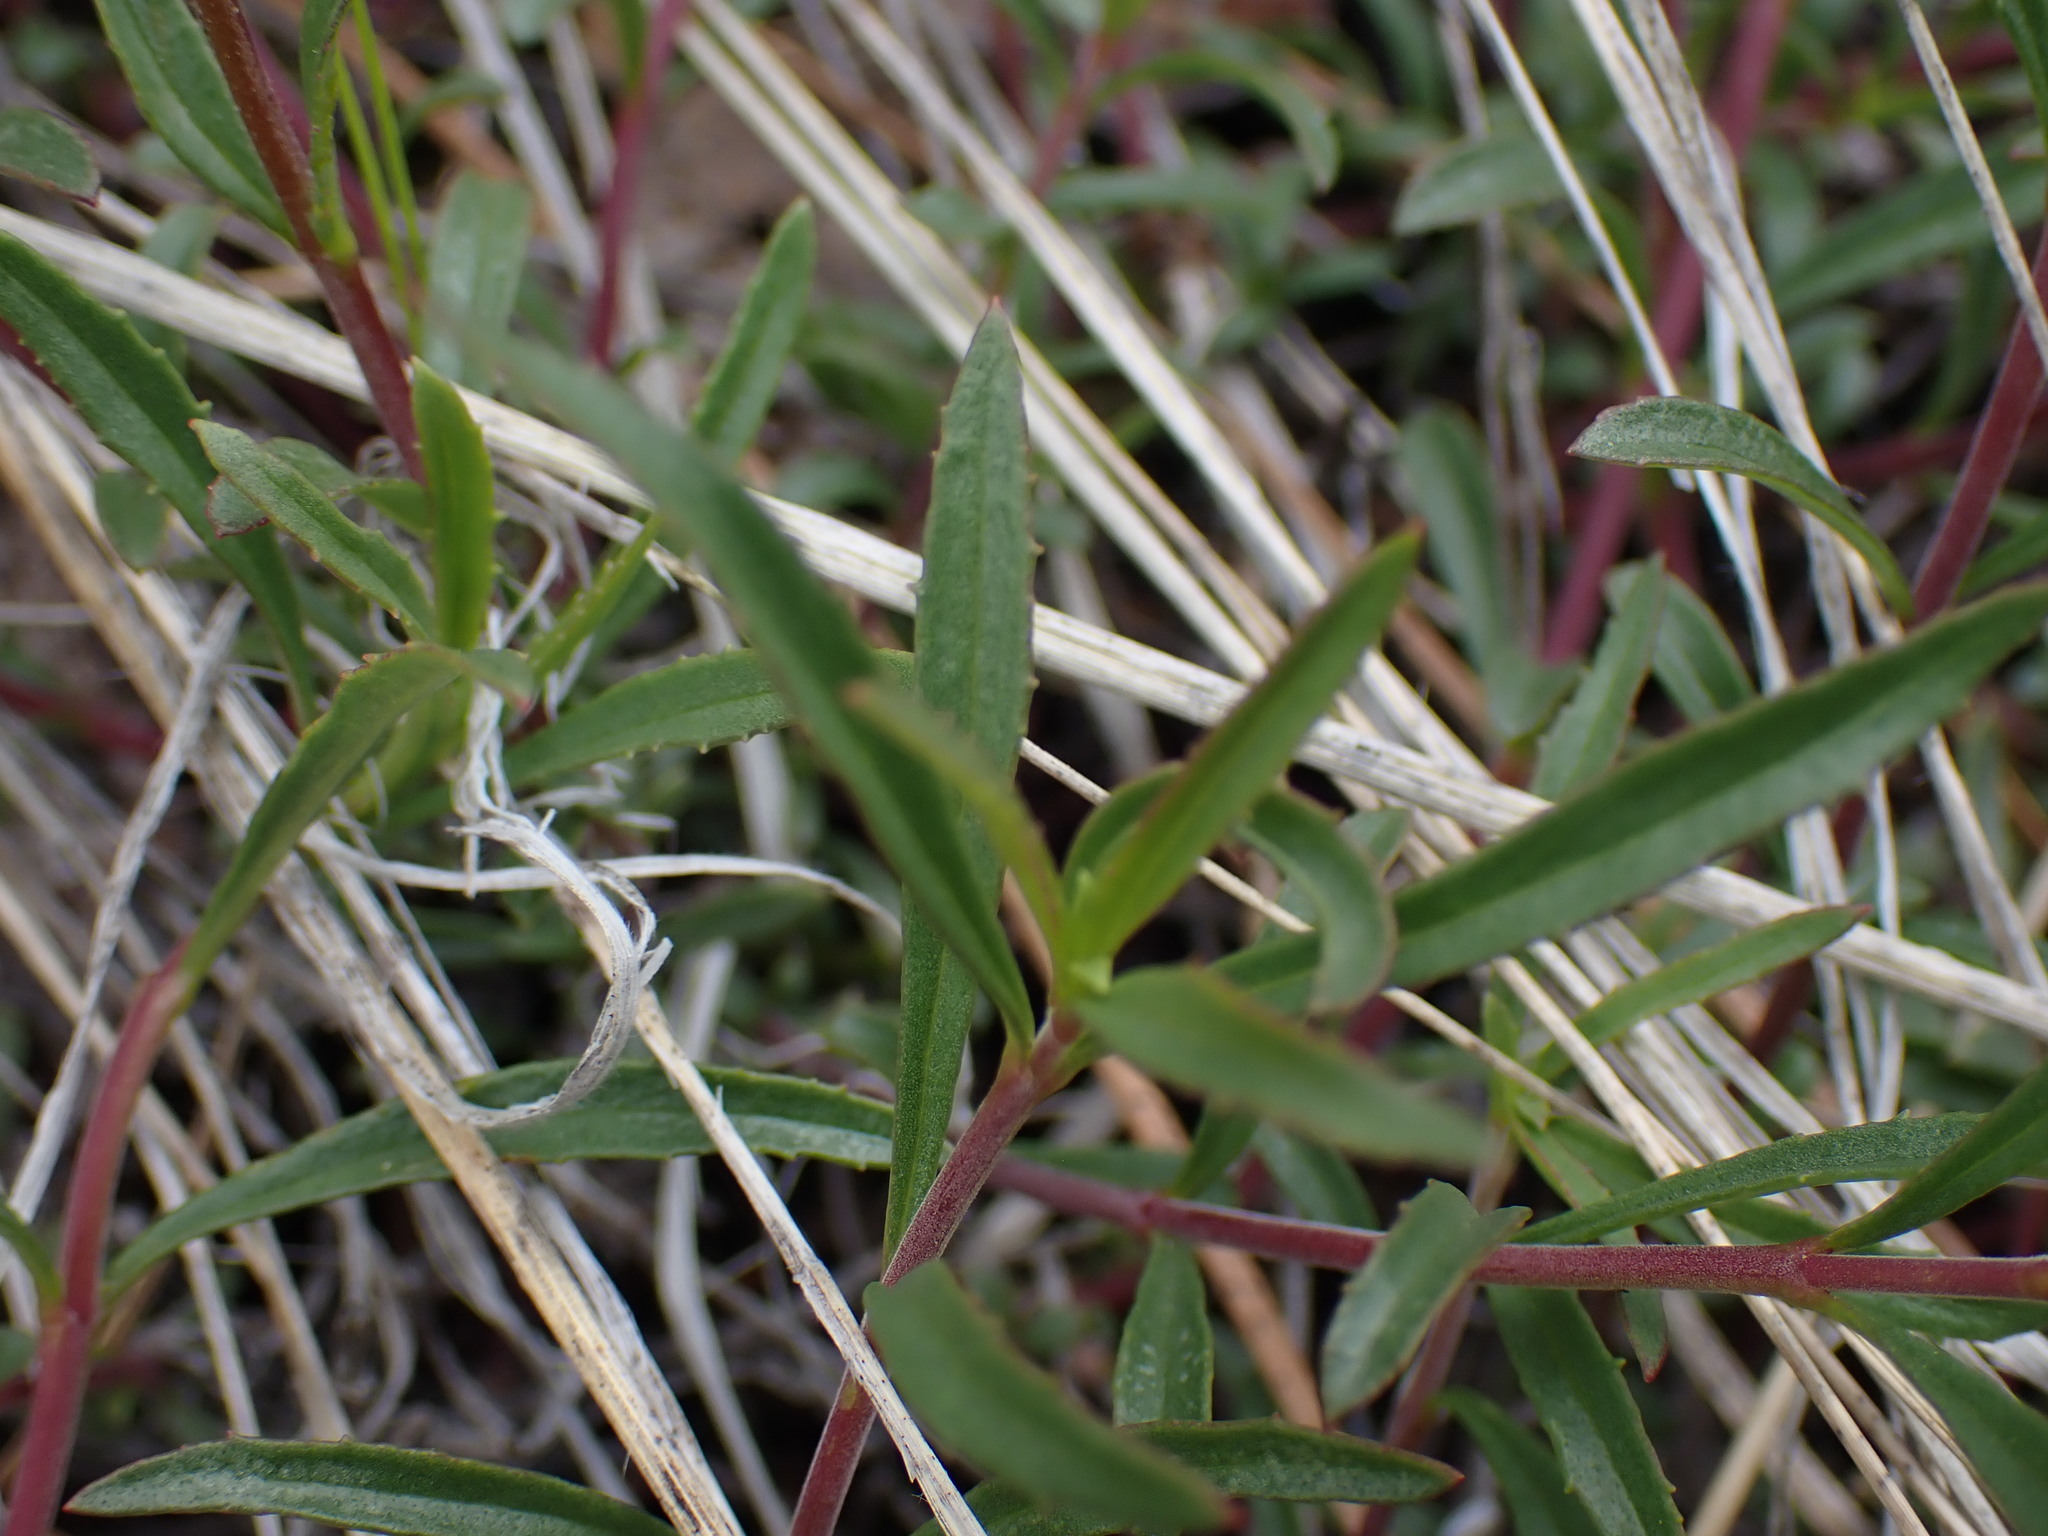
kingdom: Plantae
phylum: Tracheophyta
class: Magnoliopsida
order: Lamiales
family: Plantaginaceae
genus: Penstemon
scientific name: Penstemon fruticosus
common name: Bush penstemon
